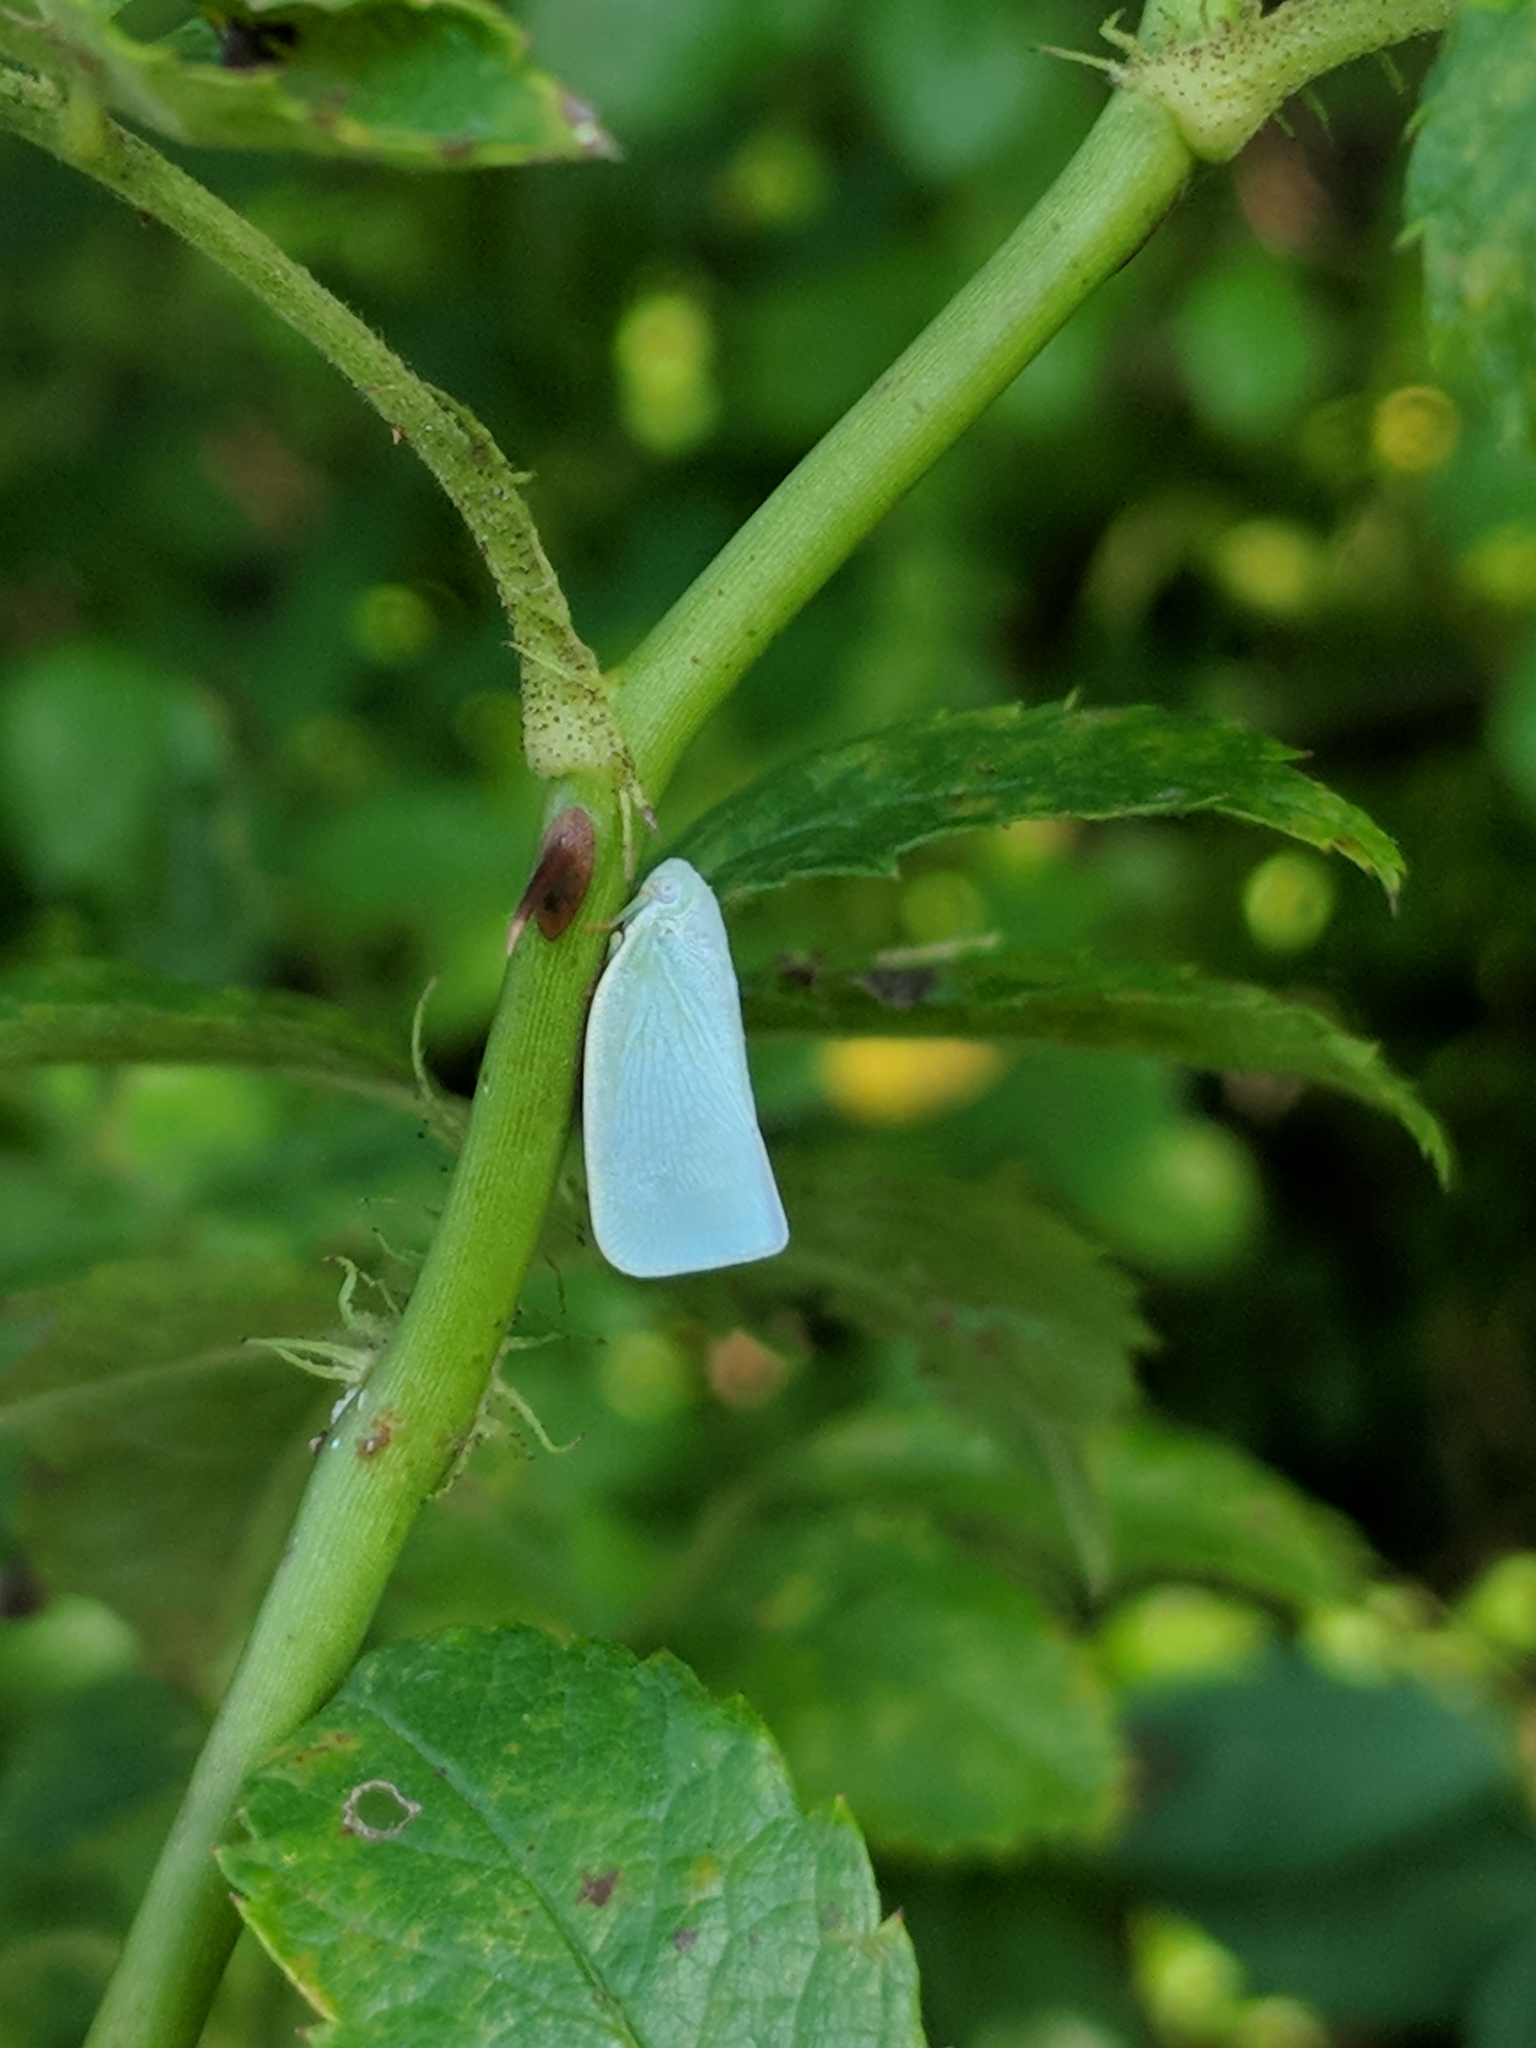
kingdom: Animalia
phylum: Arthropoda
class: Insecta
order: Hemiptera
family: Flatidae
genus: Flatormenis
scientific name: Flatormenis proxima
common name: Northern flatid planthopper
